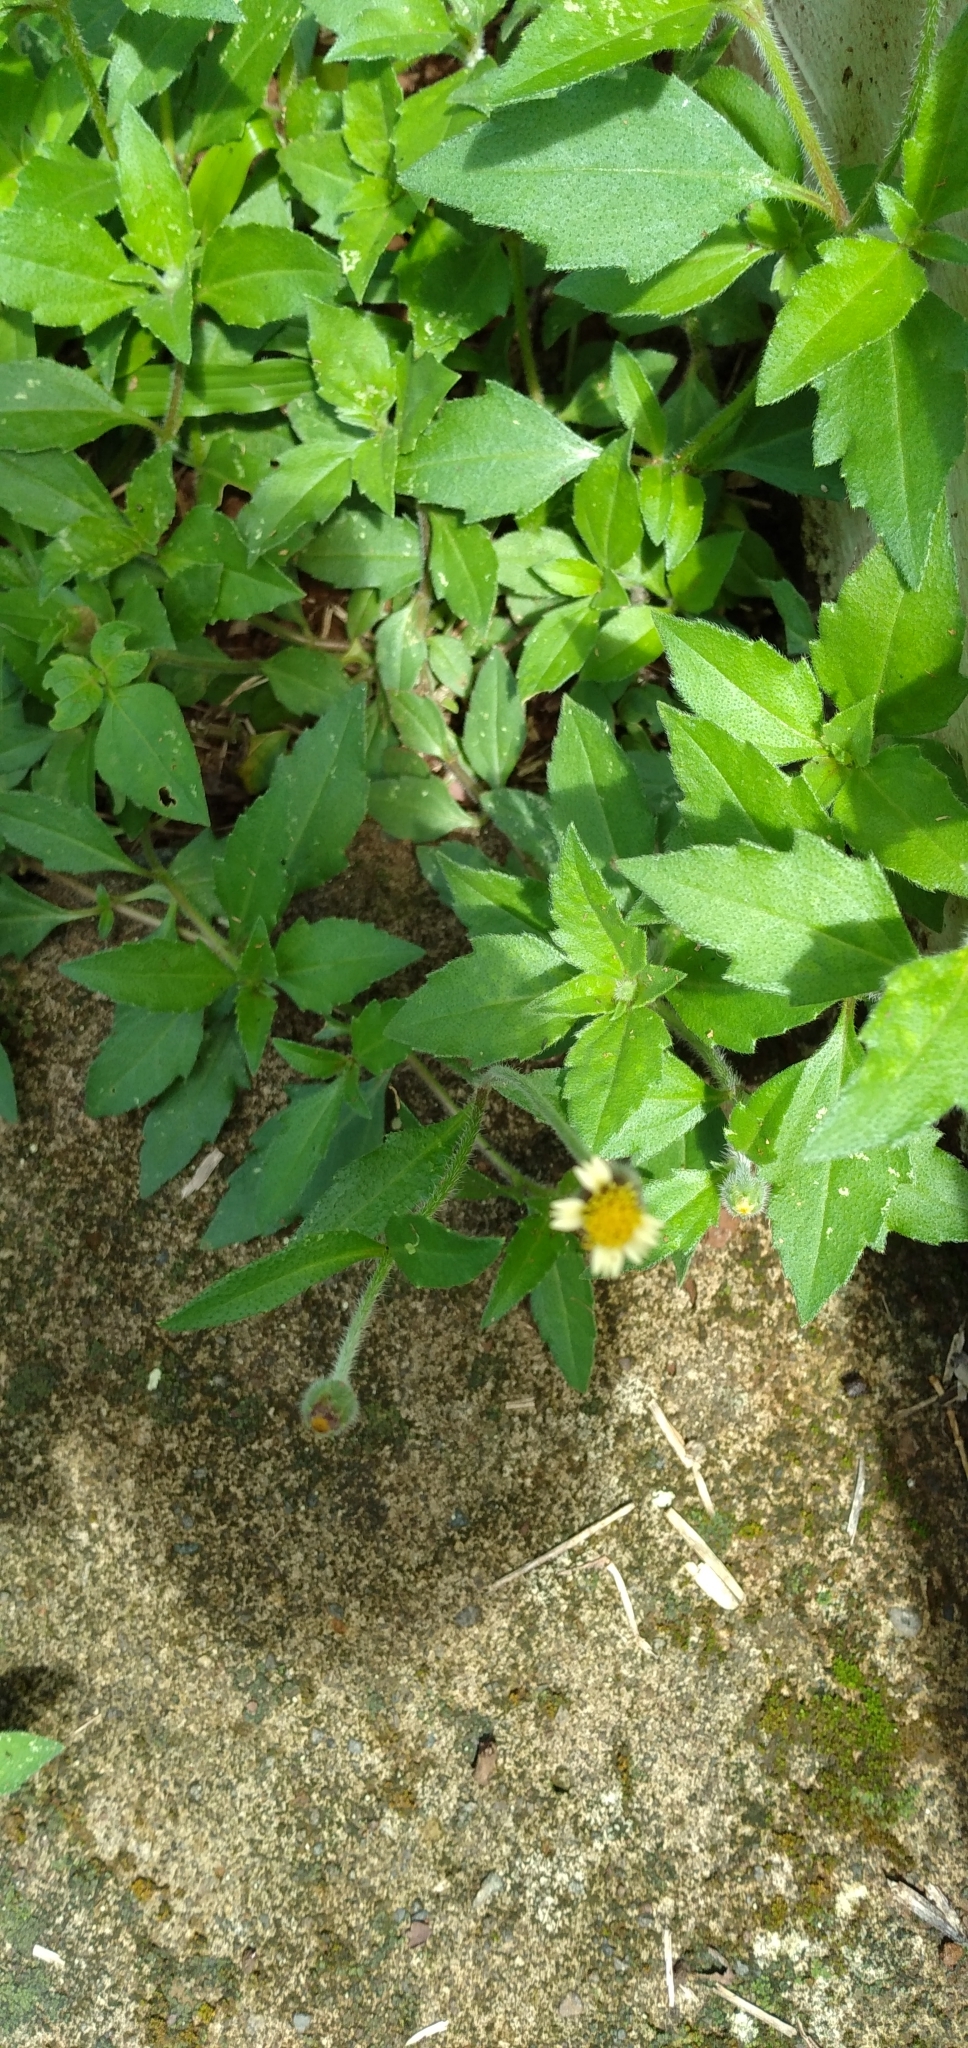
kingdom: Plantae
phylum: Tracheophyta
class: Magnoliopsida
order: Asterales
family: Asteraceae
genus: Tridax
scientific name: Tridax procumbens
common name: Coatbuttons
